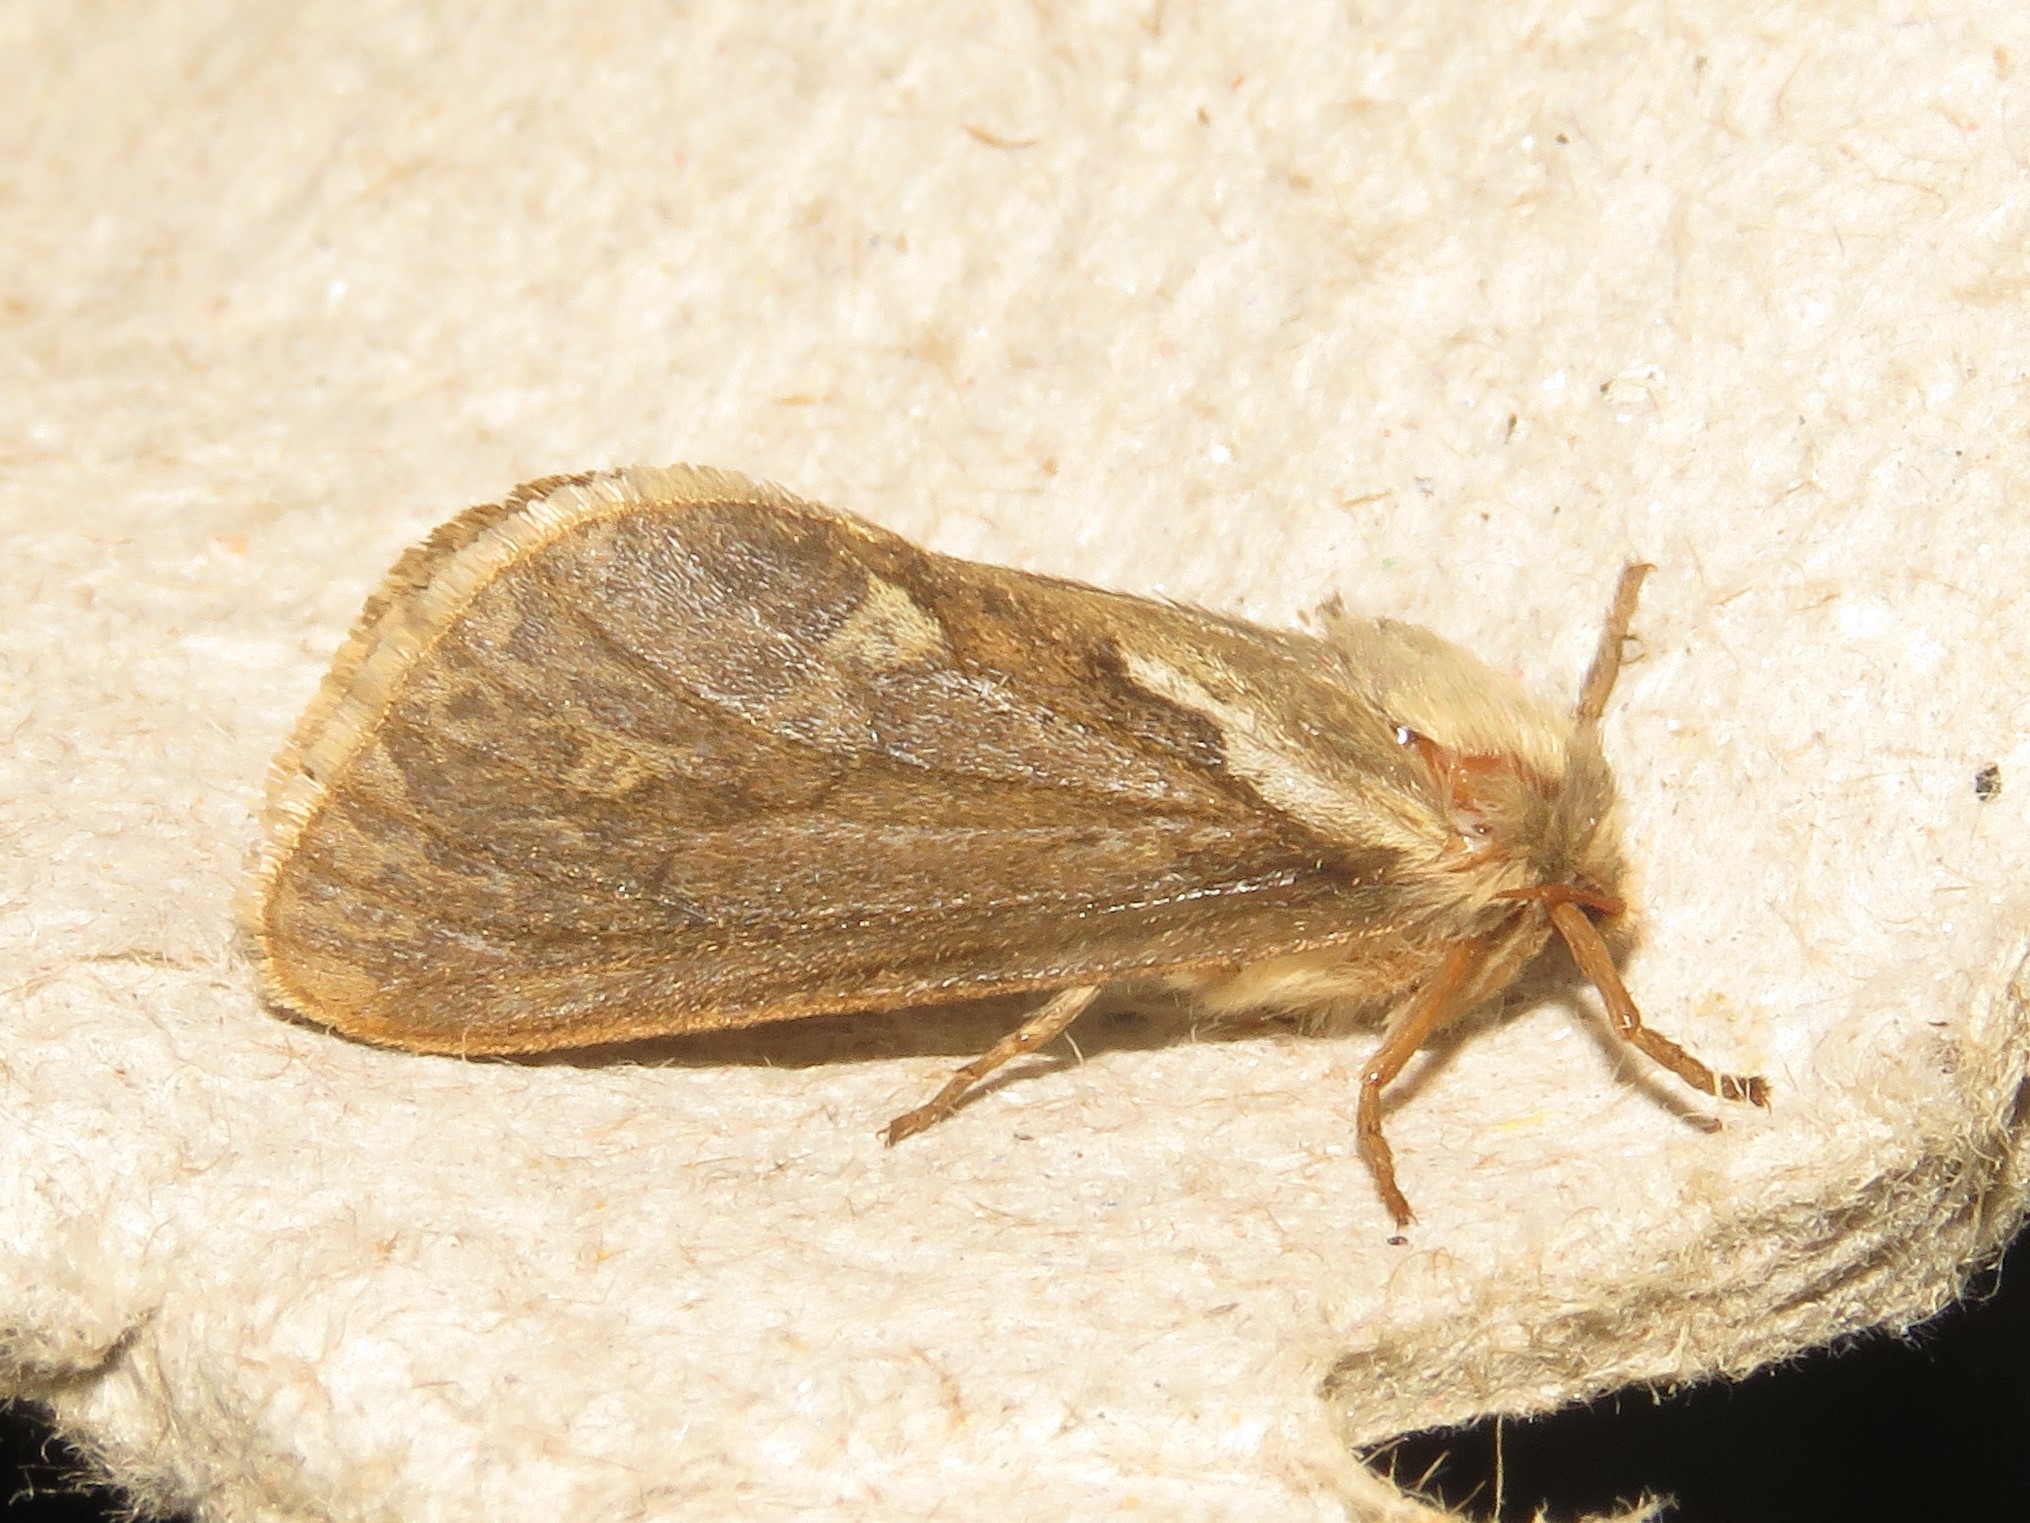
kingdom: Animalia
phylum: Arthropoda
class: Insecta
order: Lepidoptera
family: Hepialidae
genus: Korscheltellus
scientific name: Korscheltellus lupulina
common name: Common swift
